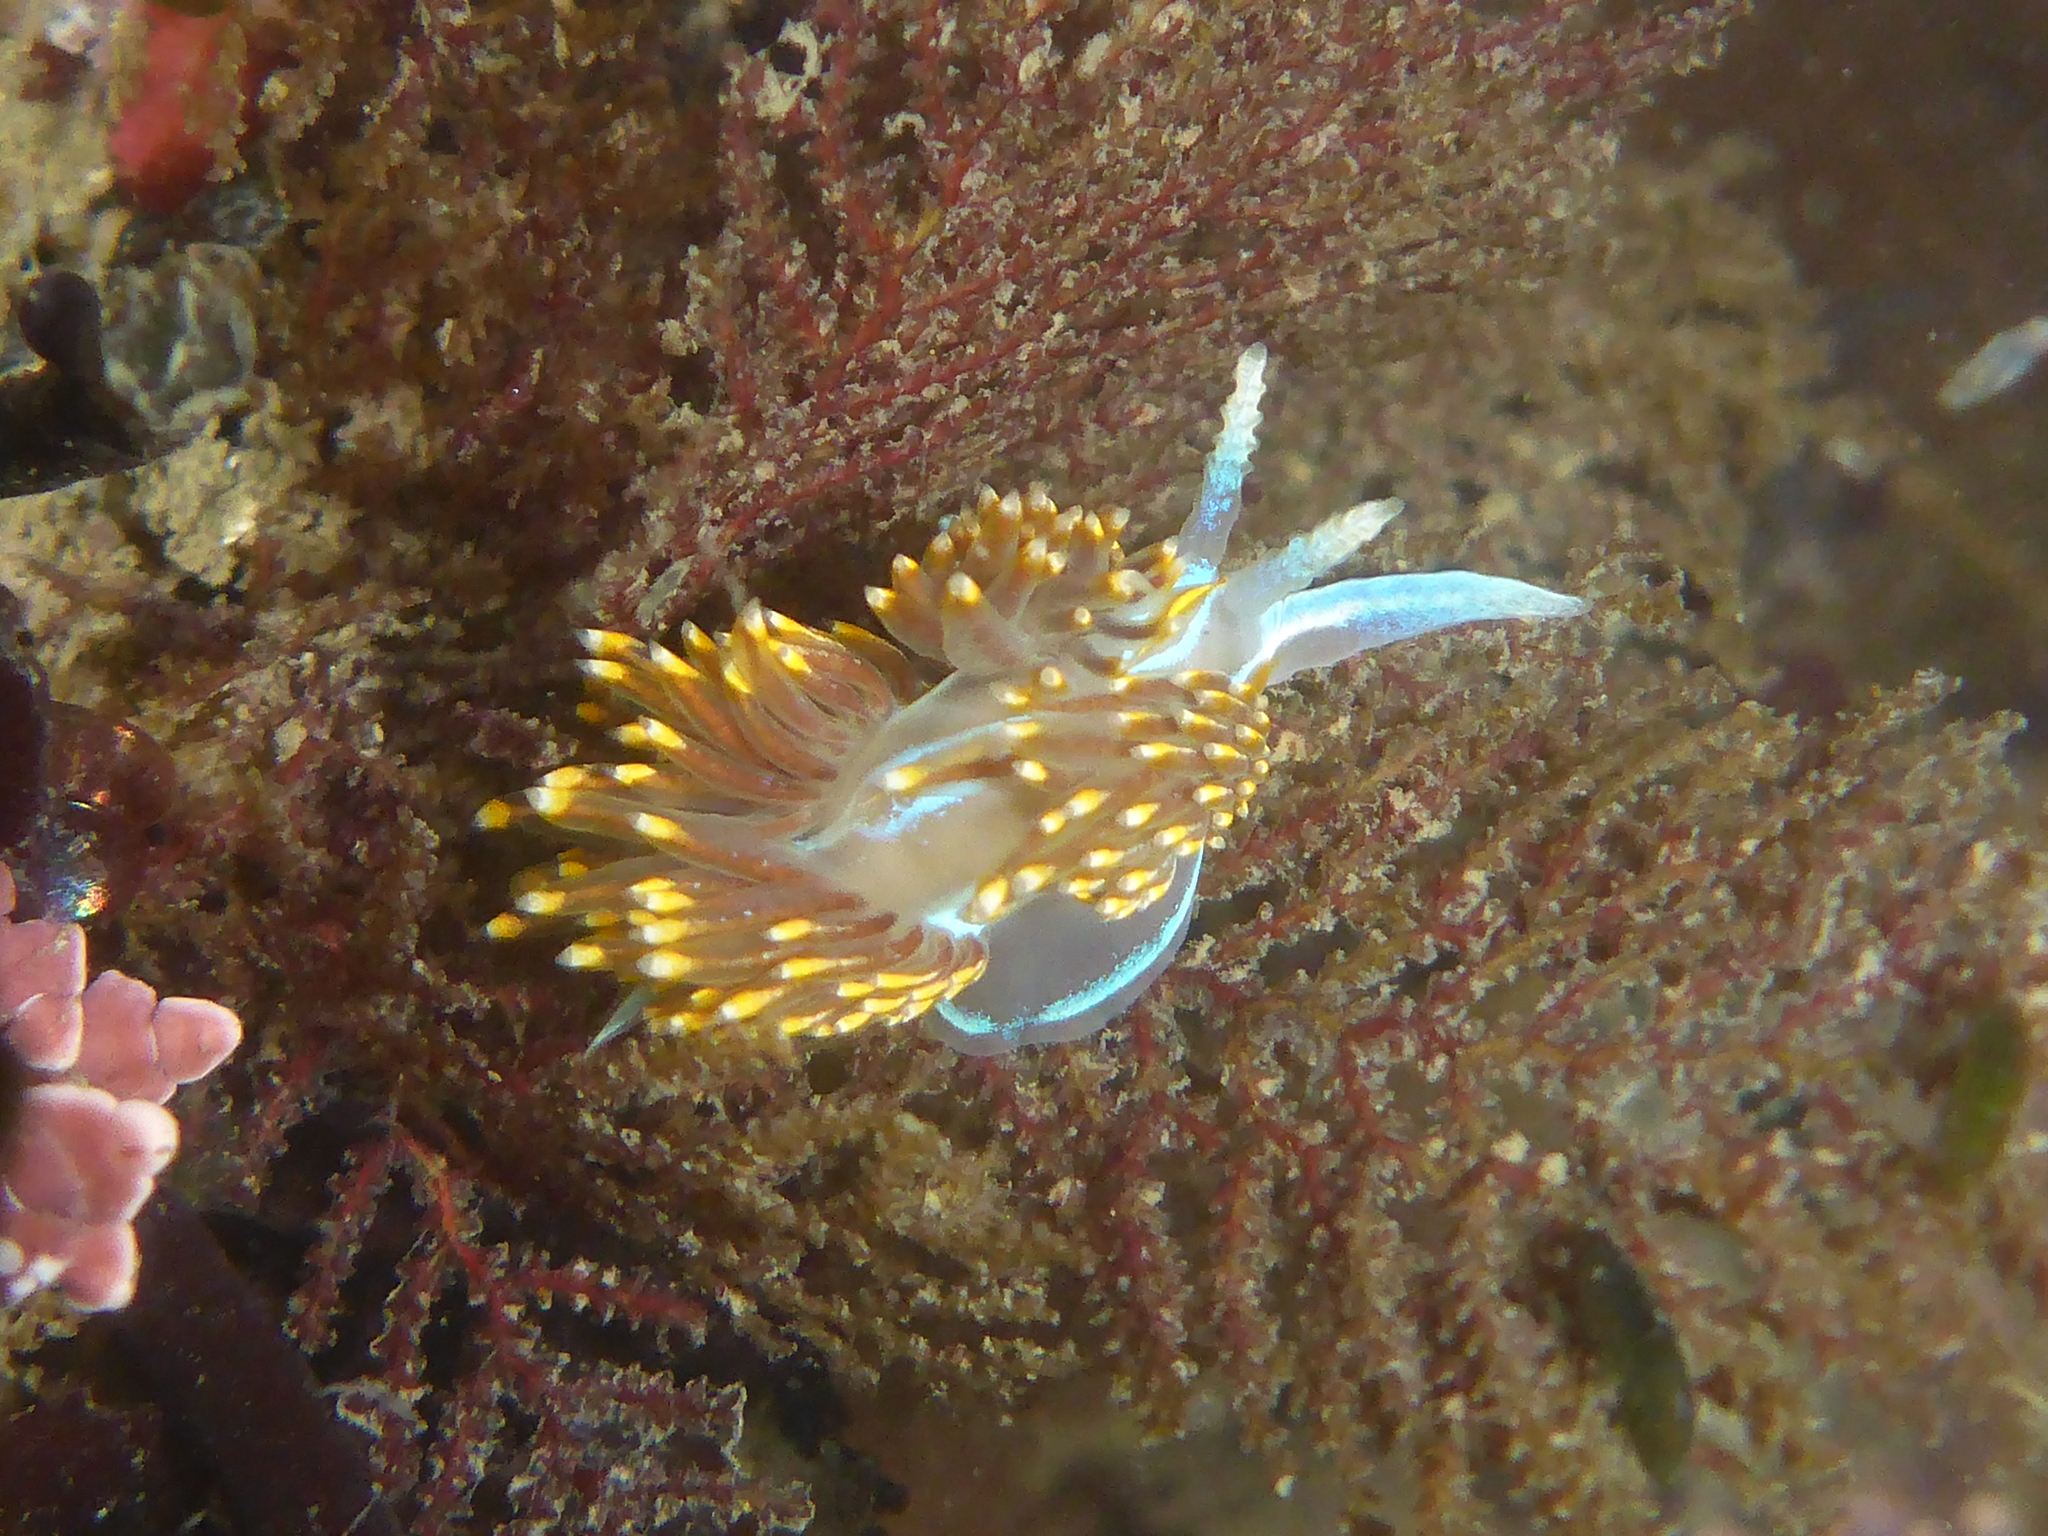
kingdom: Animalia
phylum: Mollusca
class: Gastropoda
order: Nudibranchia
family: Myrrhinidae
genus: Hermissenda
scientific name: Hermissenda opalescens
